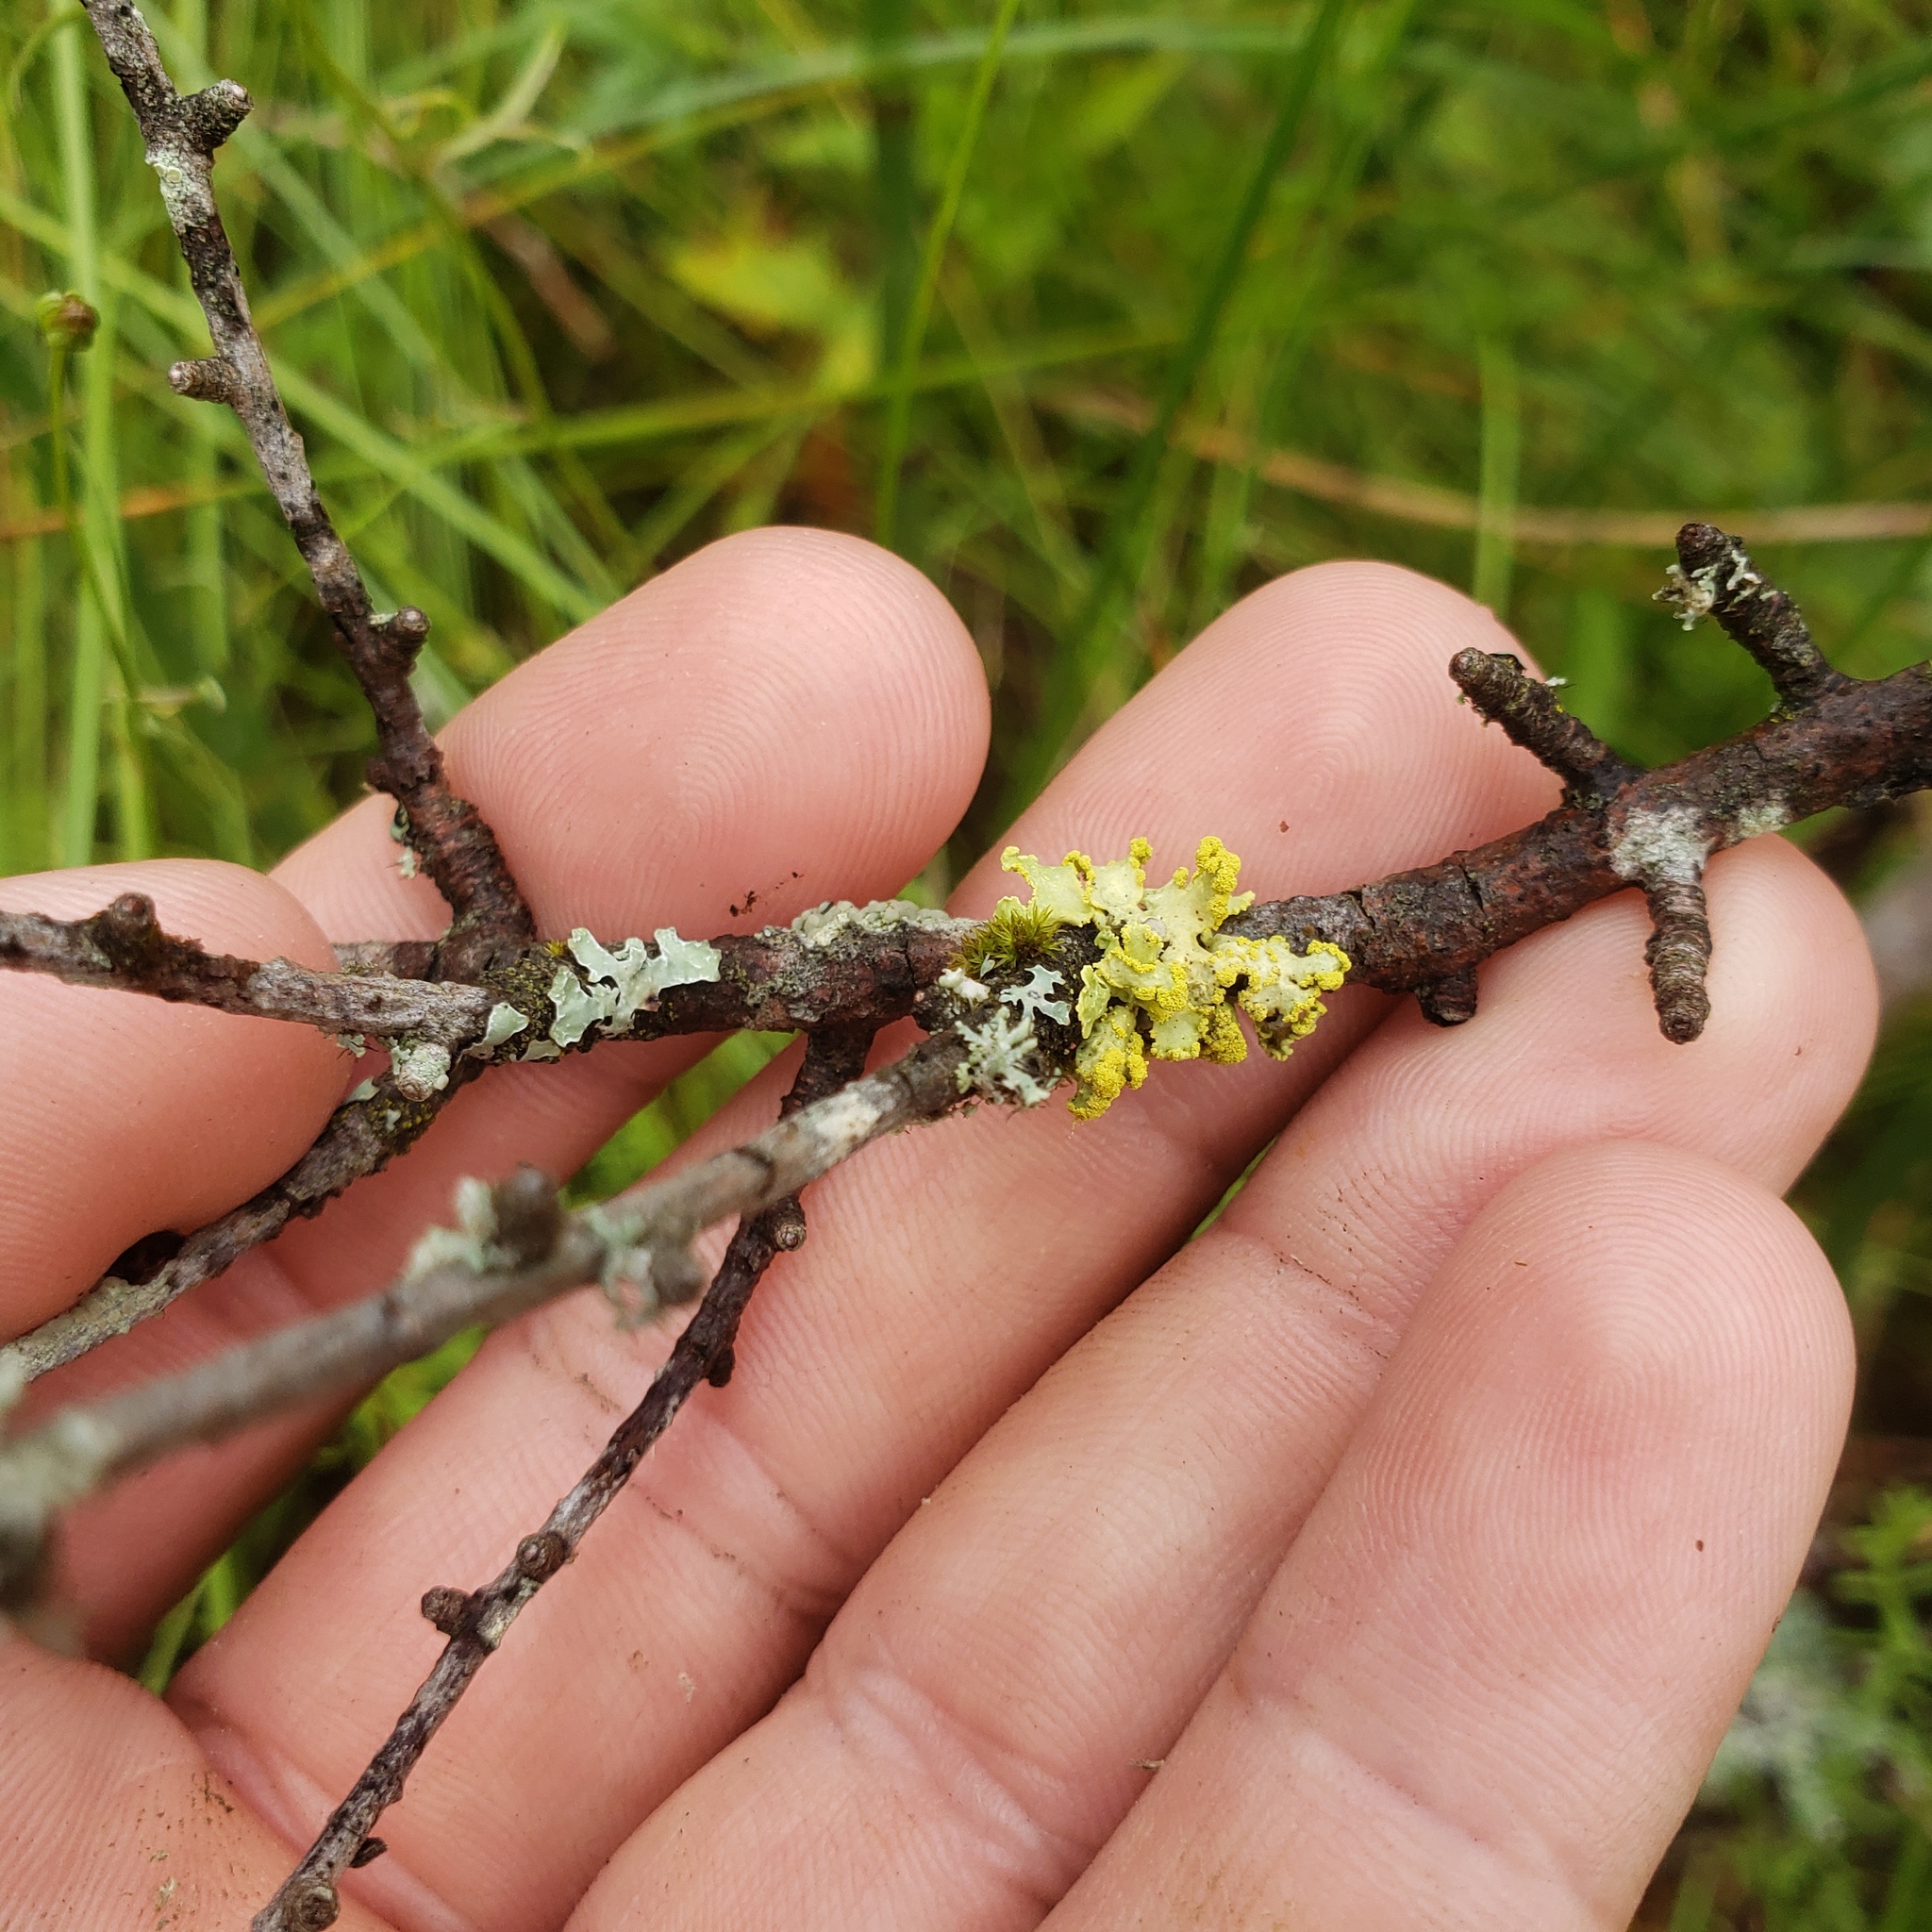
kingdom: Fungi
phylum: Ascomycota
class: Lecanoromycetes
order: Lecanorales
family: Parmeliaceae
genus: Vulpicida
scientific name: Vulpicida pinastri
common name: Powdered sunshine lichen
